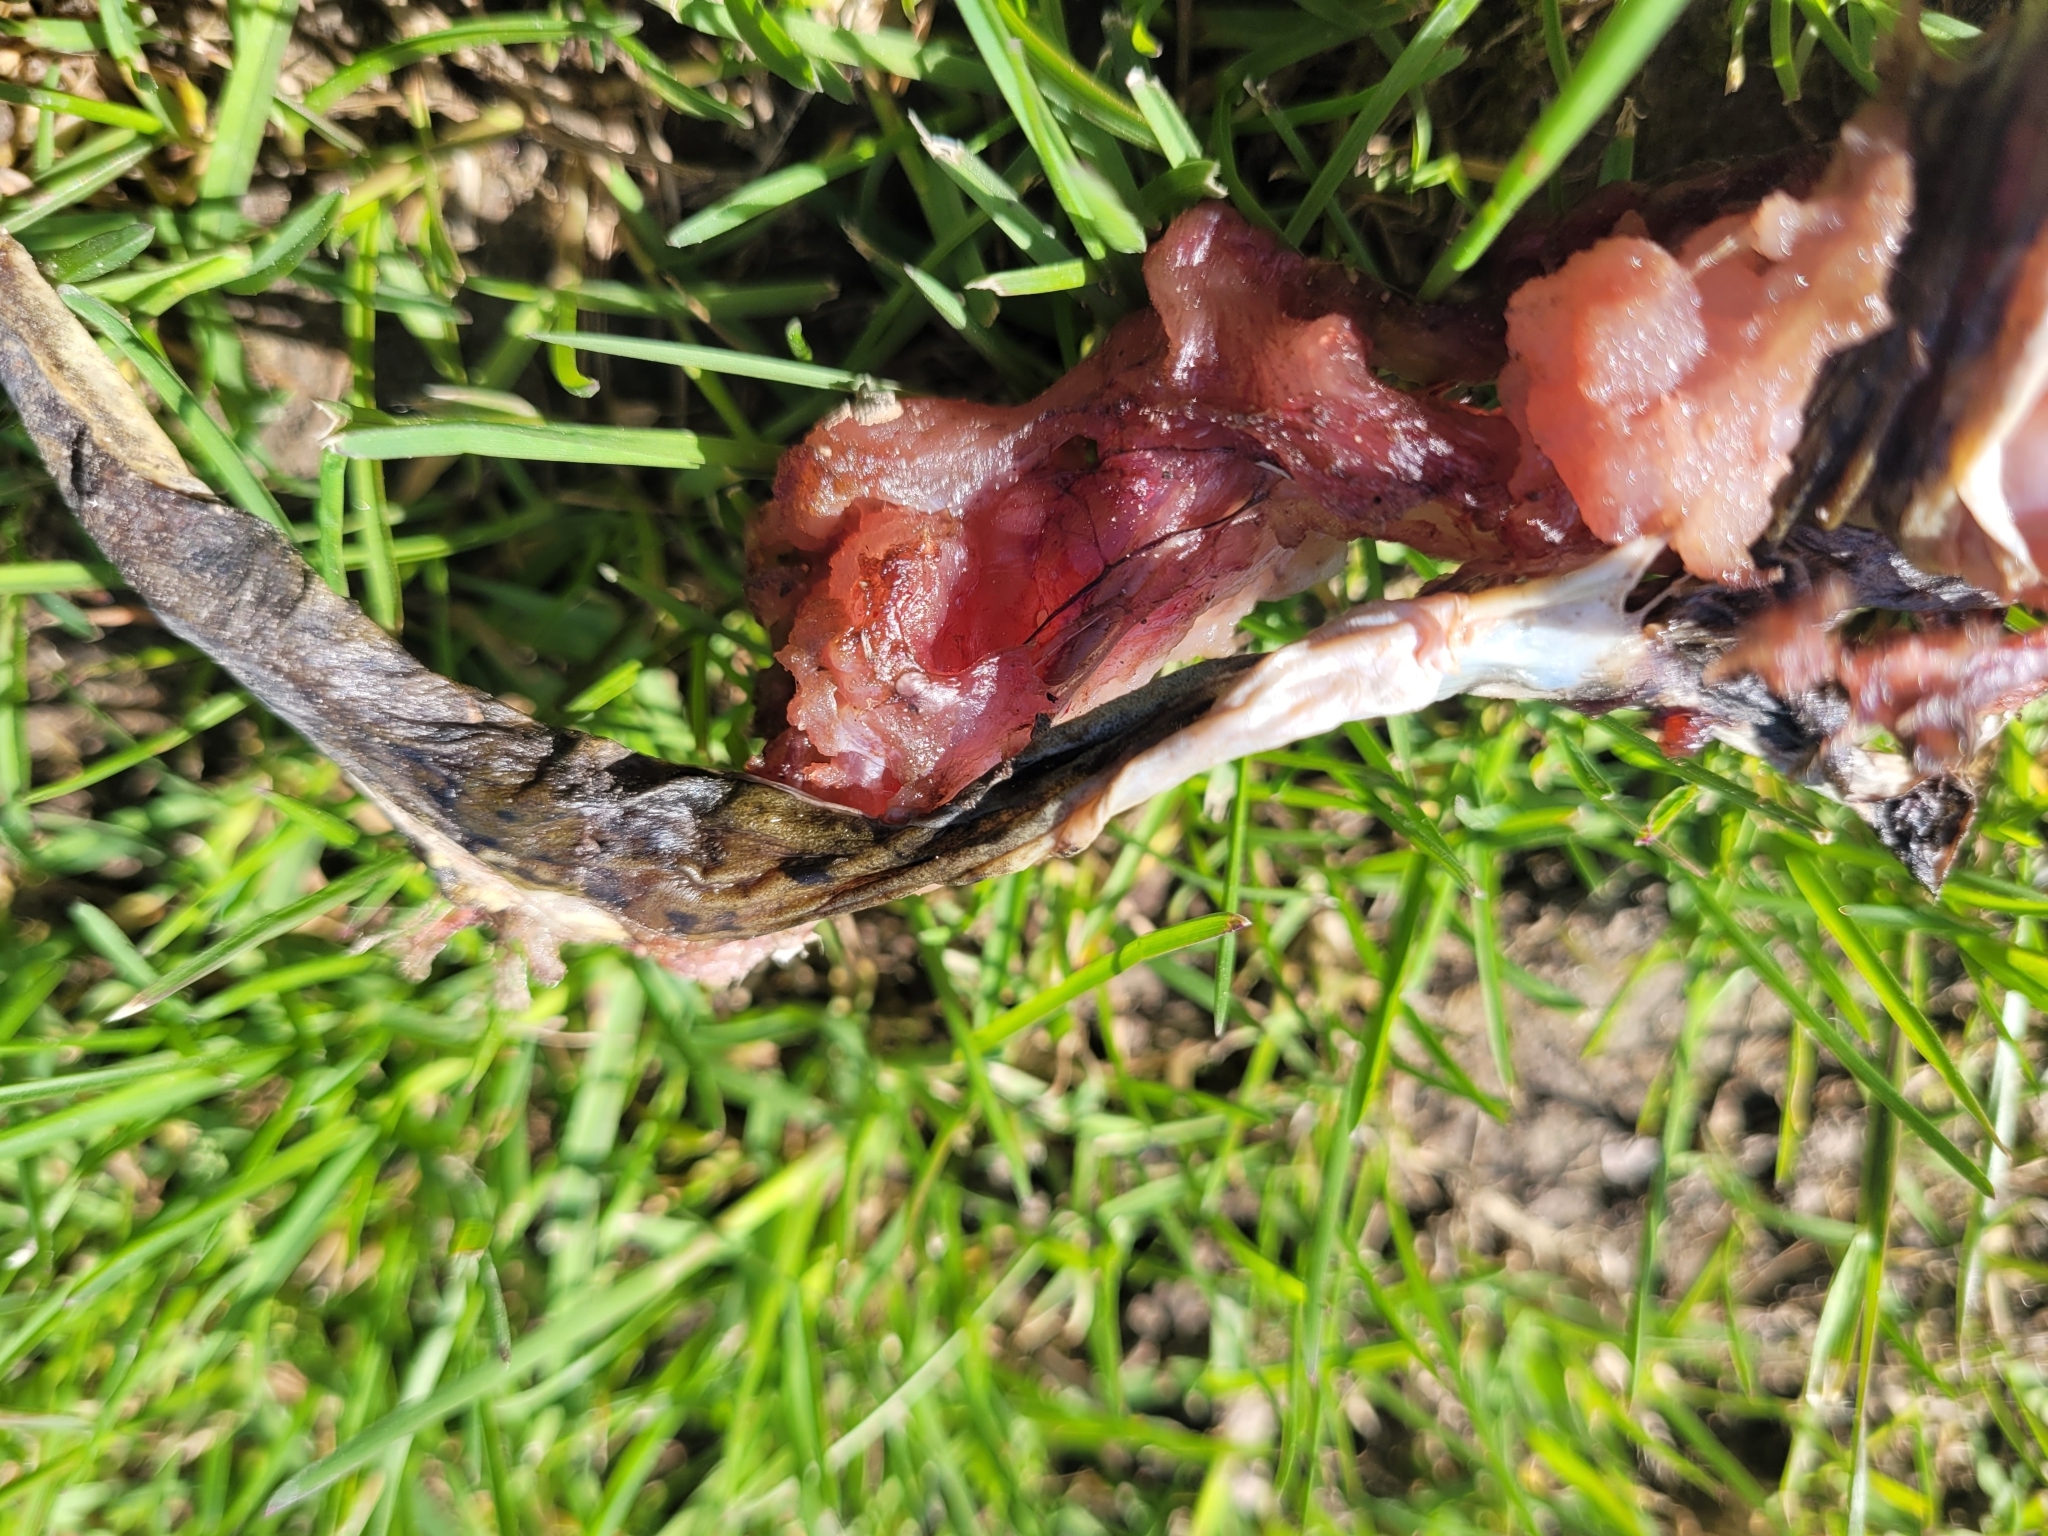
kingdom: Animalia
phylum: Chordata
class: Amphibia
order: Anura
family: Ranidae
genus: Lithobates
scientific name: Lithobates clamitans
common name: Green frog
